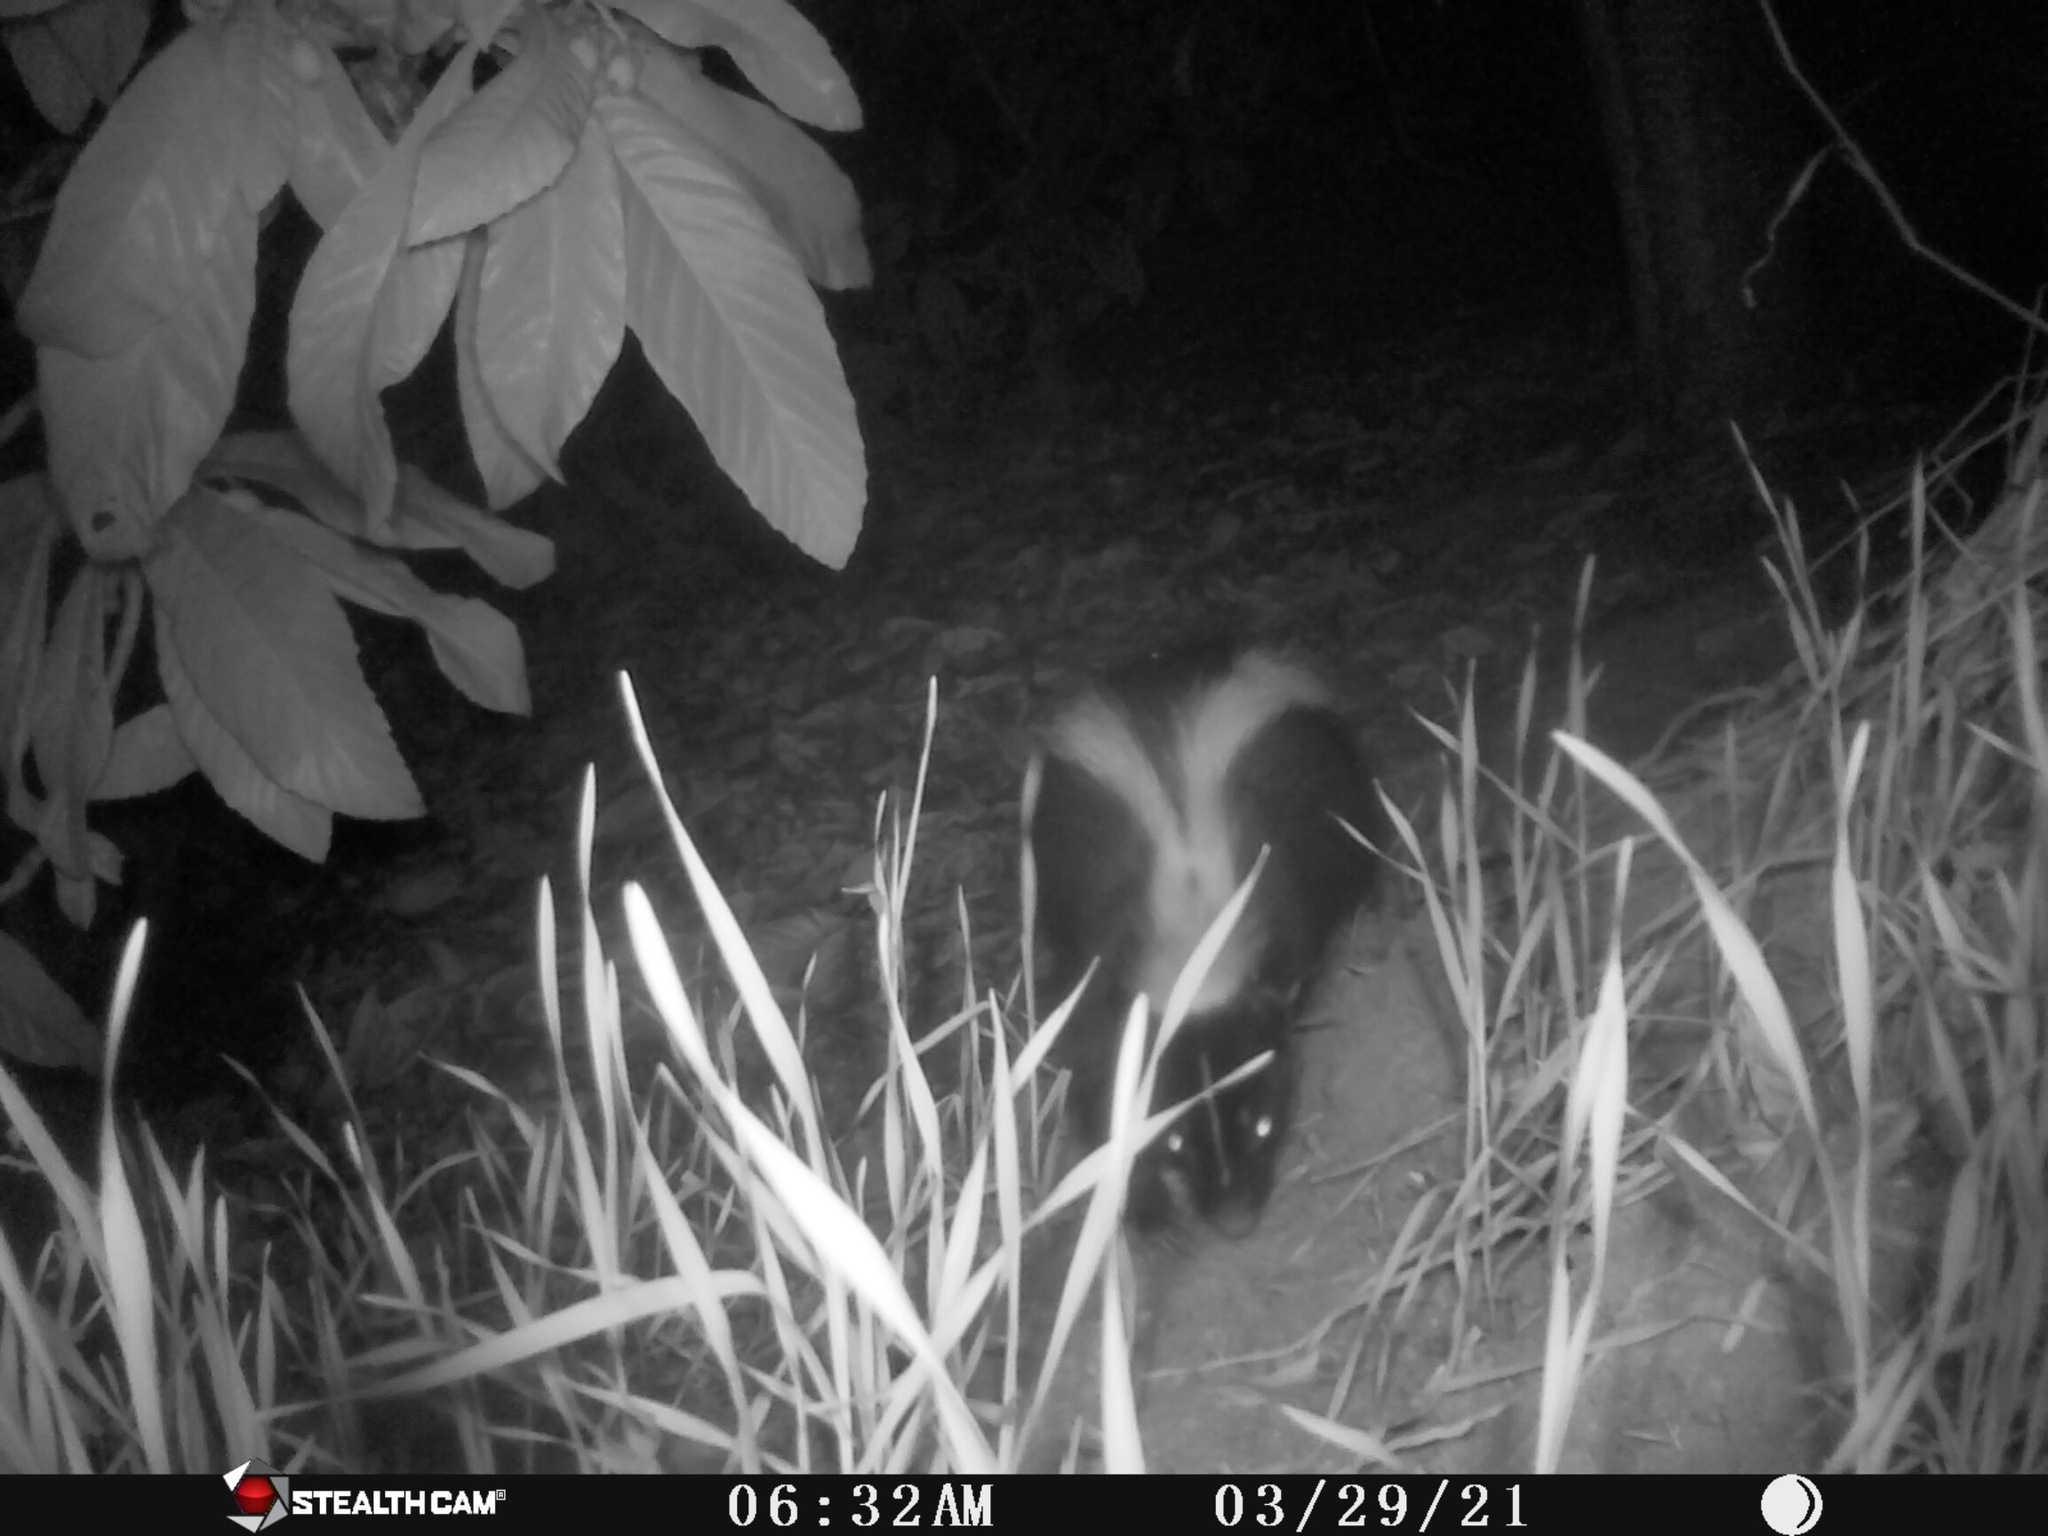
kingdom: Animalia
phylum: Chordata
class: Mammalia
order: Carnivora
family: Mephitidae
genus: Mephitis
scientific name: Mephitis mephitis
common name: Striped skunk
